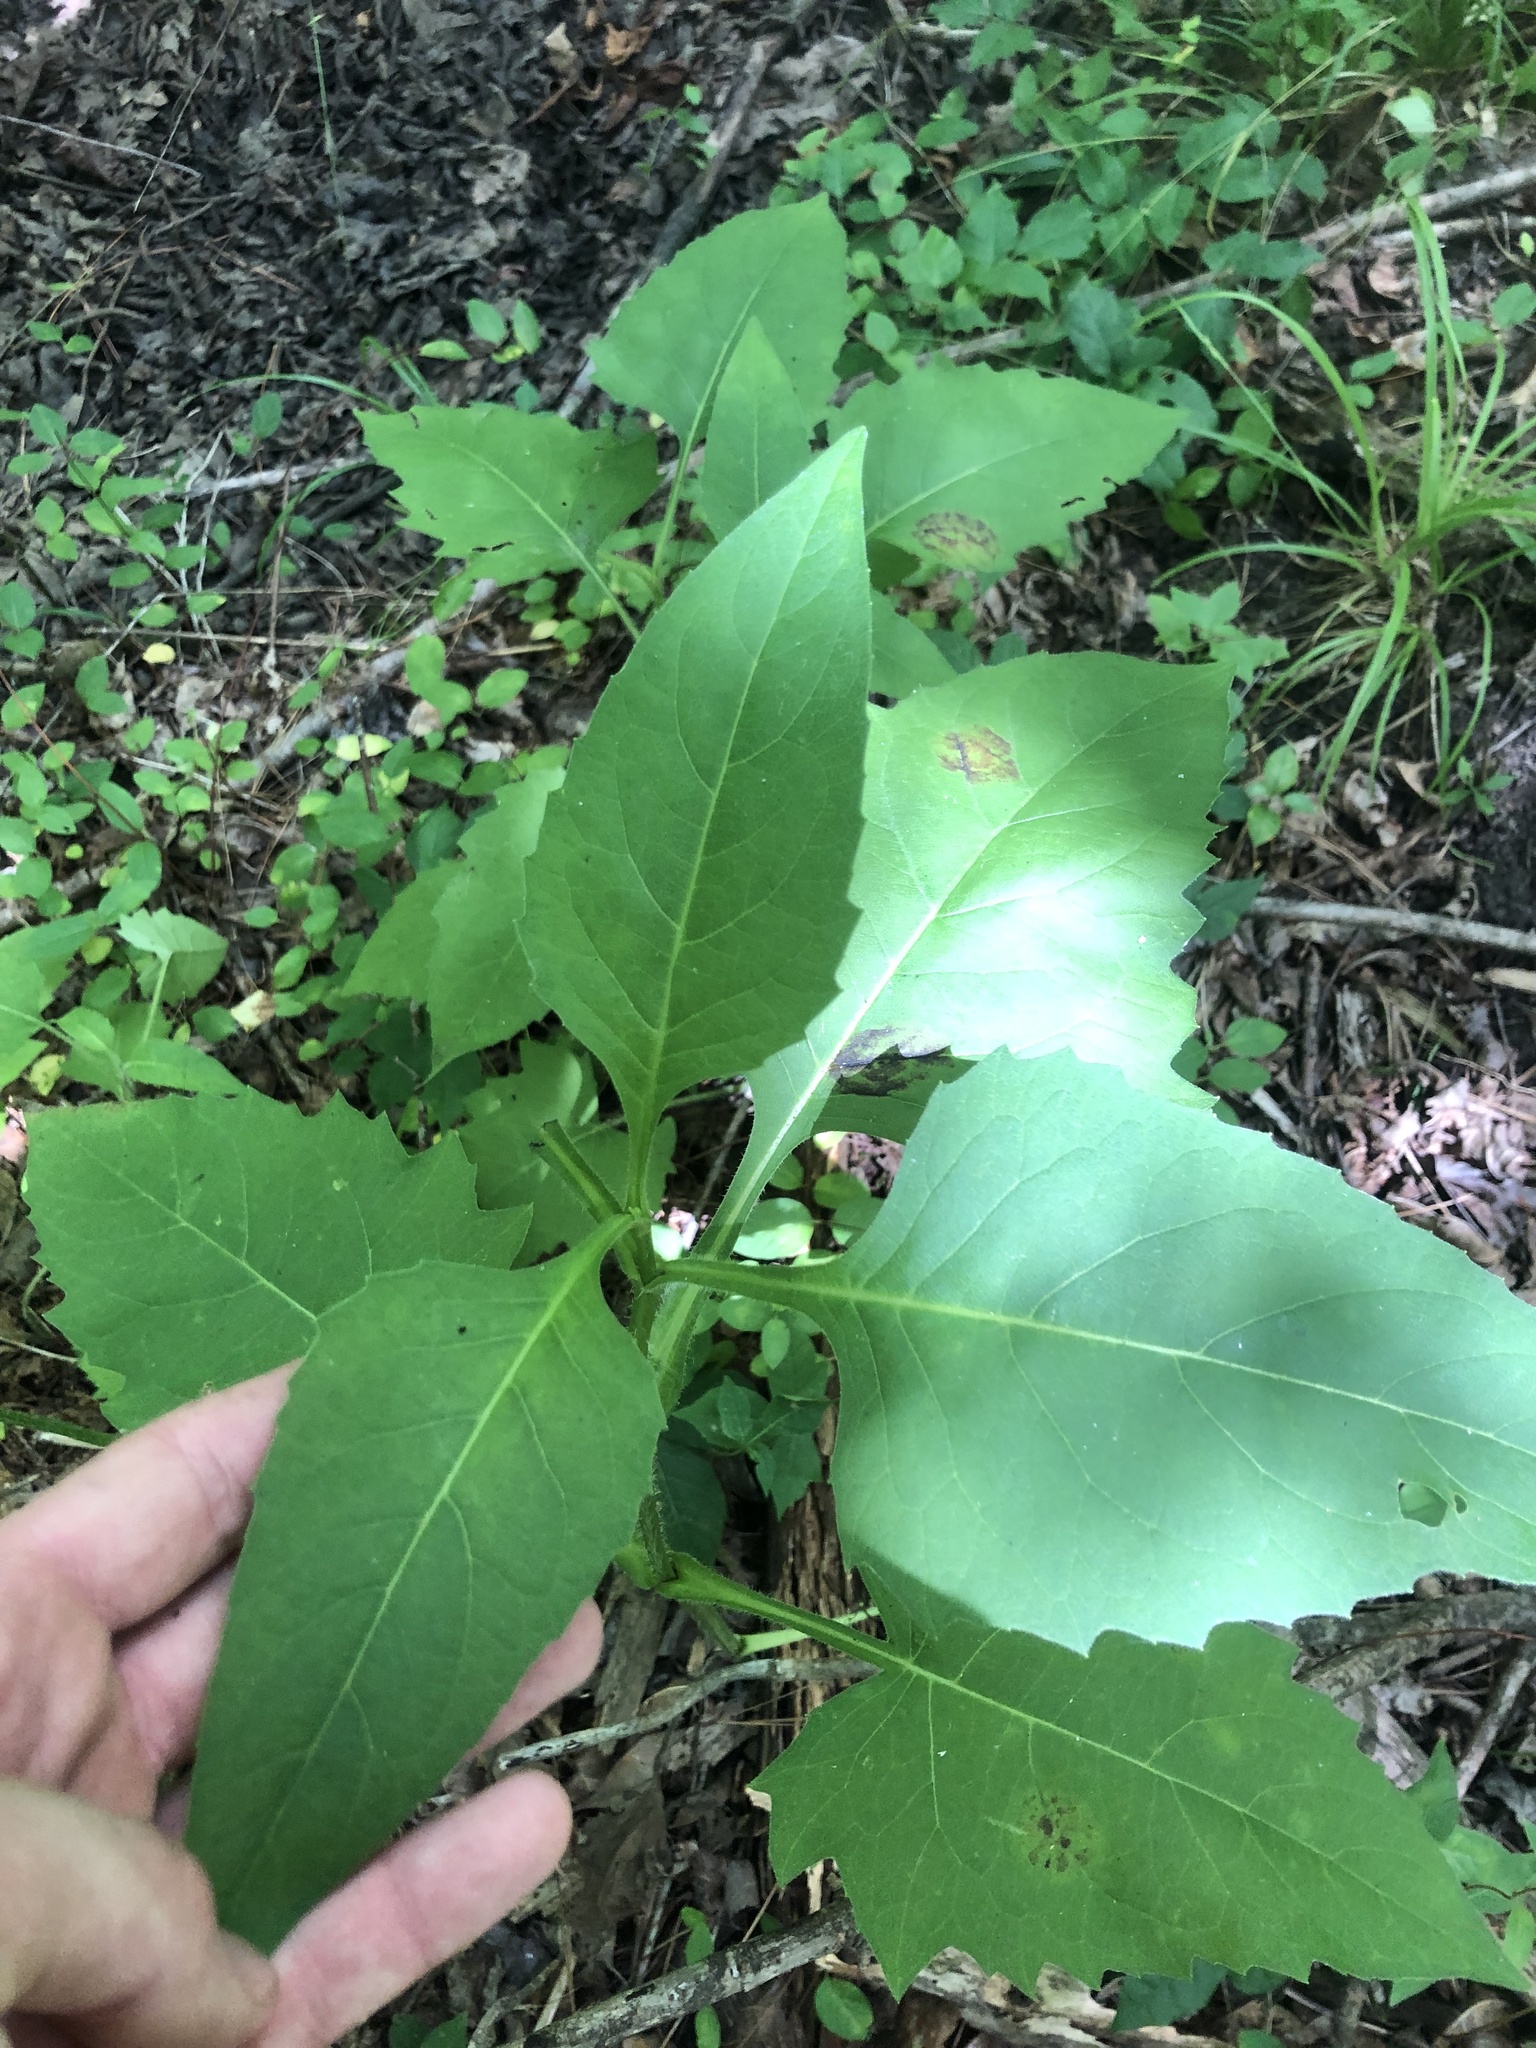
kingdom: Plantae
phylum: Tracheophyta
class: Magnoliopsida
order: Asterales
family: Asteraceae
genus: Silphium
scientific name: Silphium perfoliatum
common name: Cup-plant
